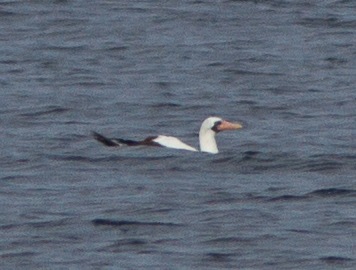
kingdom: Animalia
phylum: Chordata
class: Aves
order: Suliformes
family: Sulidae
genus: Sula
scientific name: Sula granti
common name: Nazca booby
